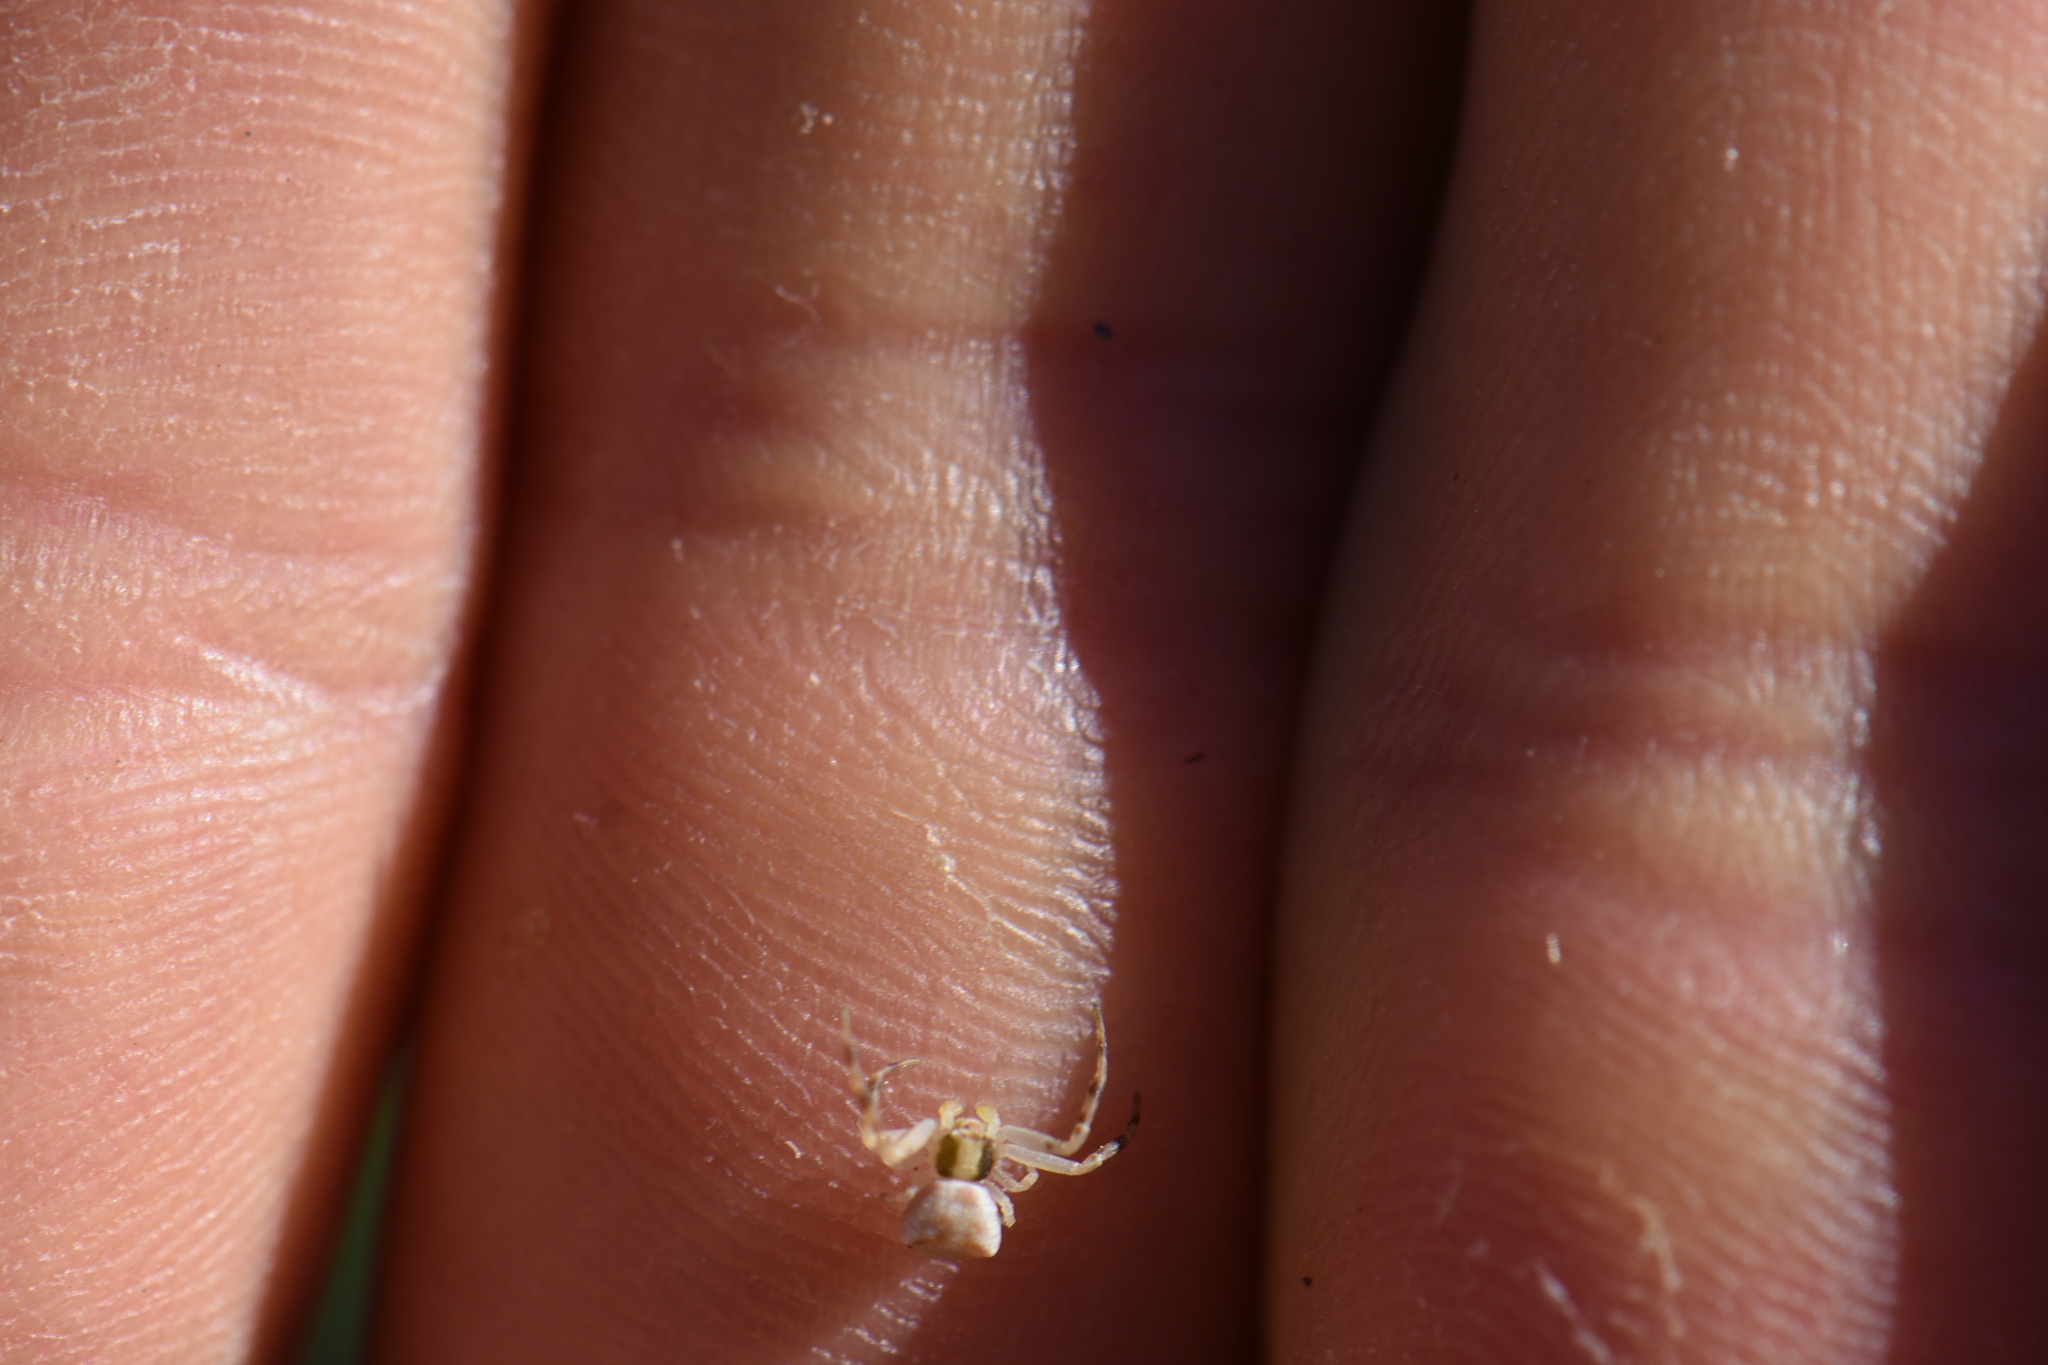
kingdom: Animalia
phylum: Arthropoda
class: Arachnida
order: Araneae
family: Thomisidae
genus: Thomisus
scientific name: Thomisus onustus
